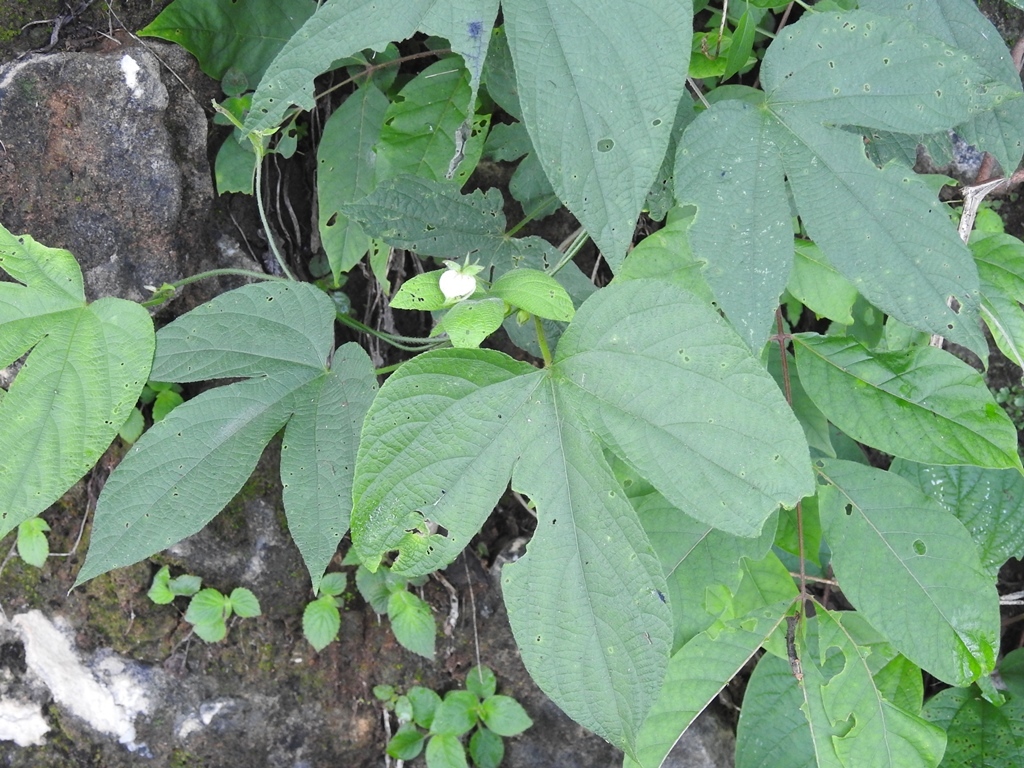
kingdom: Plantae
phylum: Tracheophyta
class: Magnoliopsida
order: Malpighiales
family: Euphorbiaceae
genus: Dalechampia
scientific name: Dalechampia scandens
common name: Spurgecreeper
